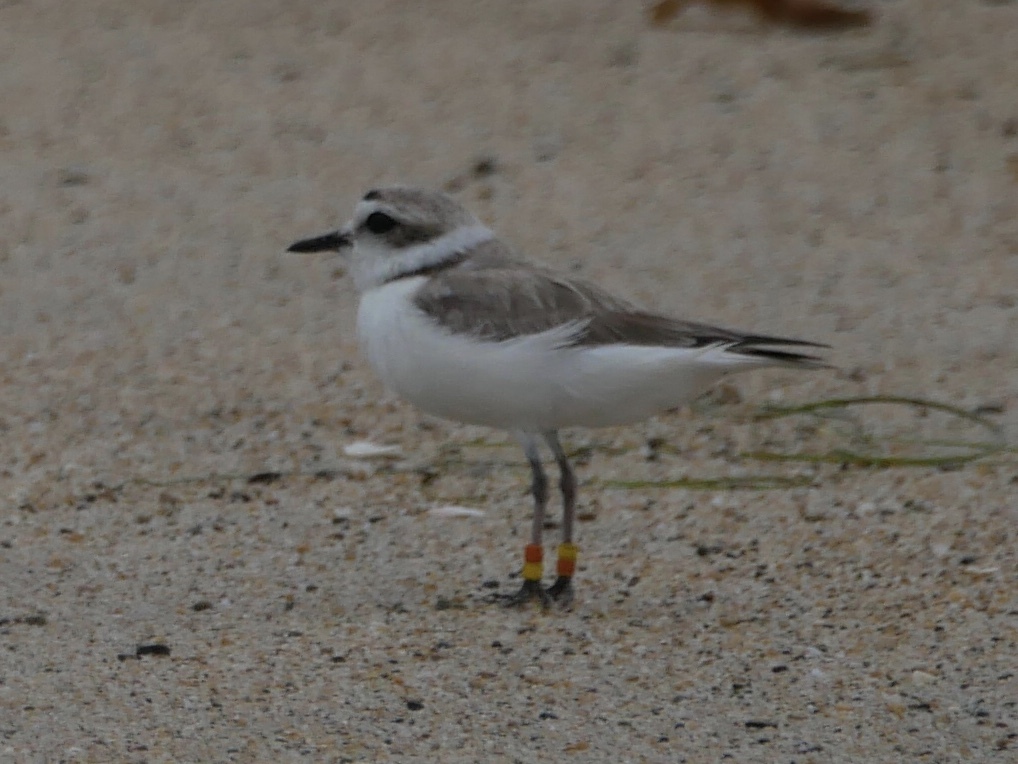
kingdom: Animalia
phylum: Chordata
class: Aves
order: Charadriiformes
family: Charadriidae
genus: Anarhynchus
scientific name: Anarhynchus
